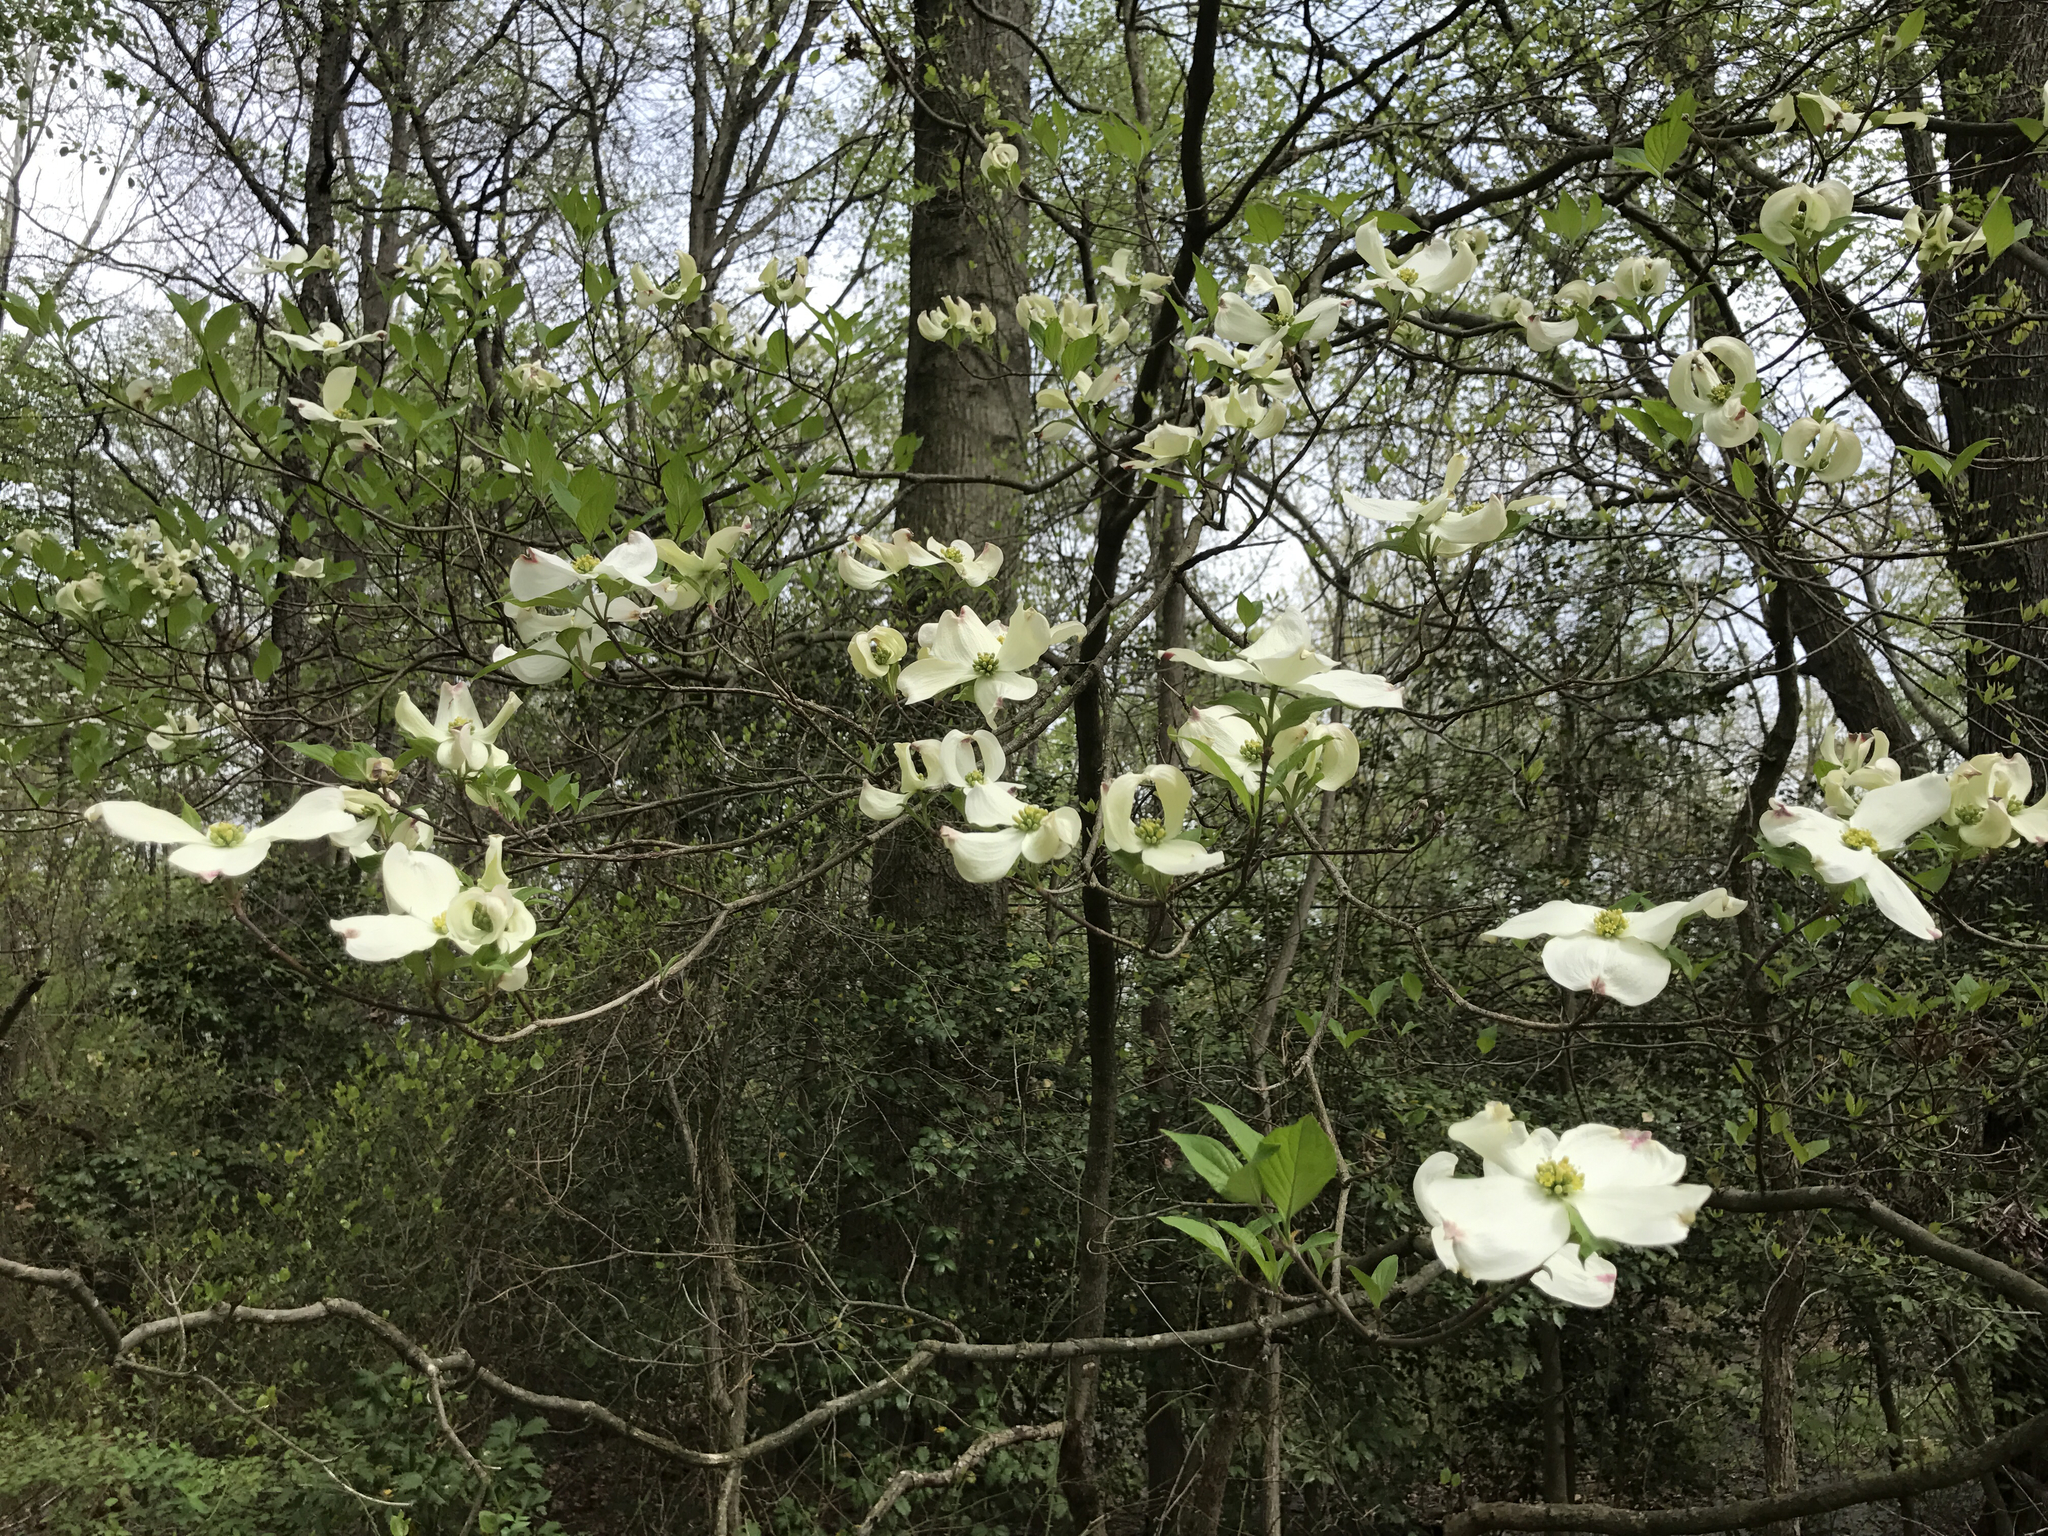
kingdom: Plantae
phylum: Tracheophyta
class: Magnoliopsida
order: Cornales
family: Cornaceae
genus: Cornus
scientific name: Cornus florida
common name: Flowering dogwood
